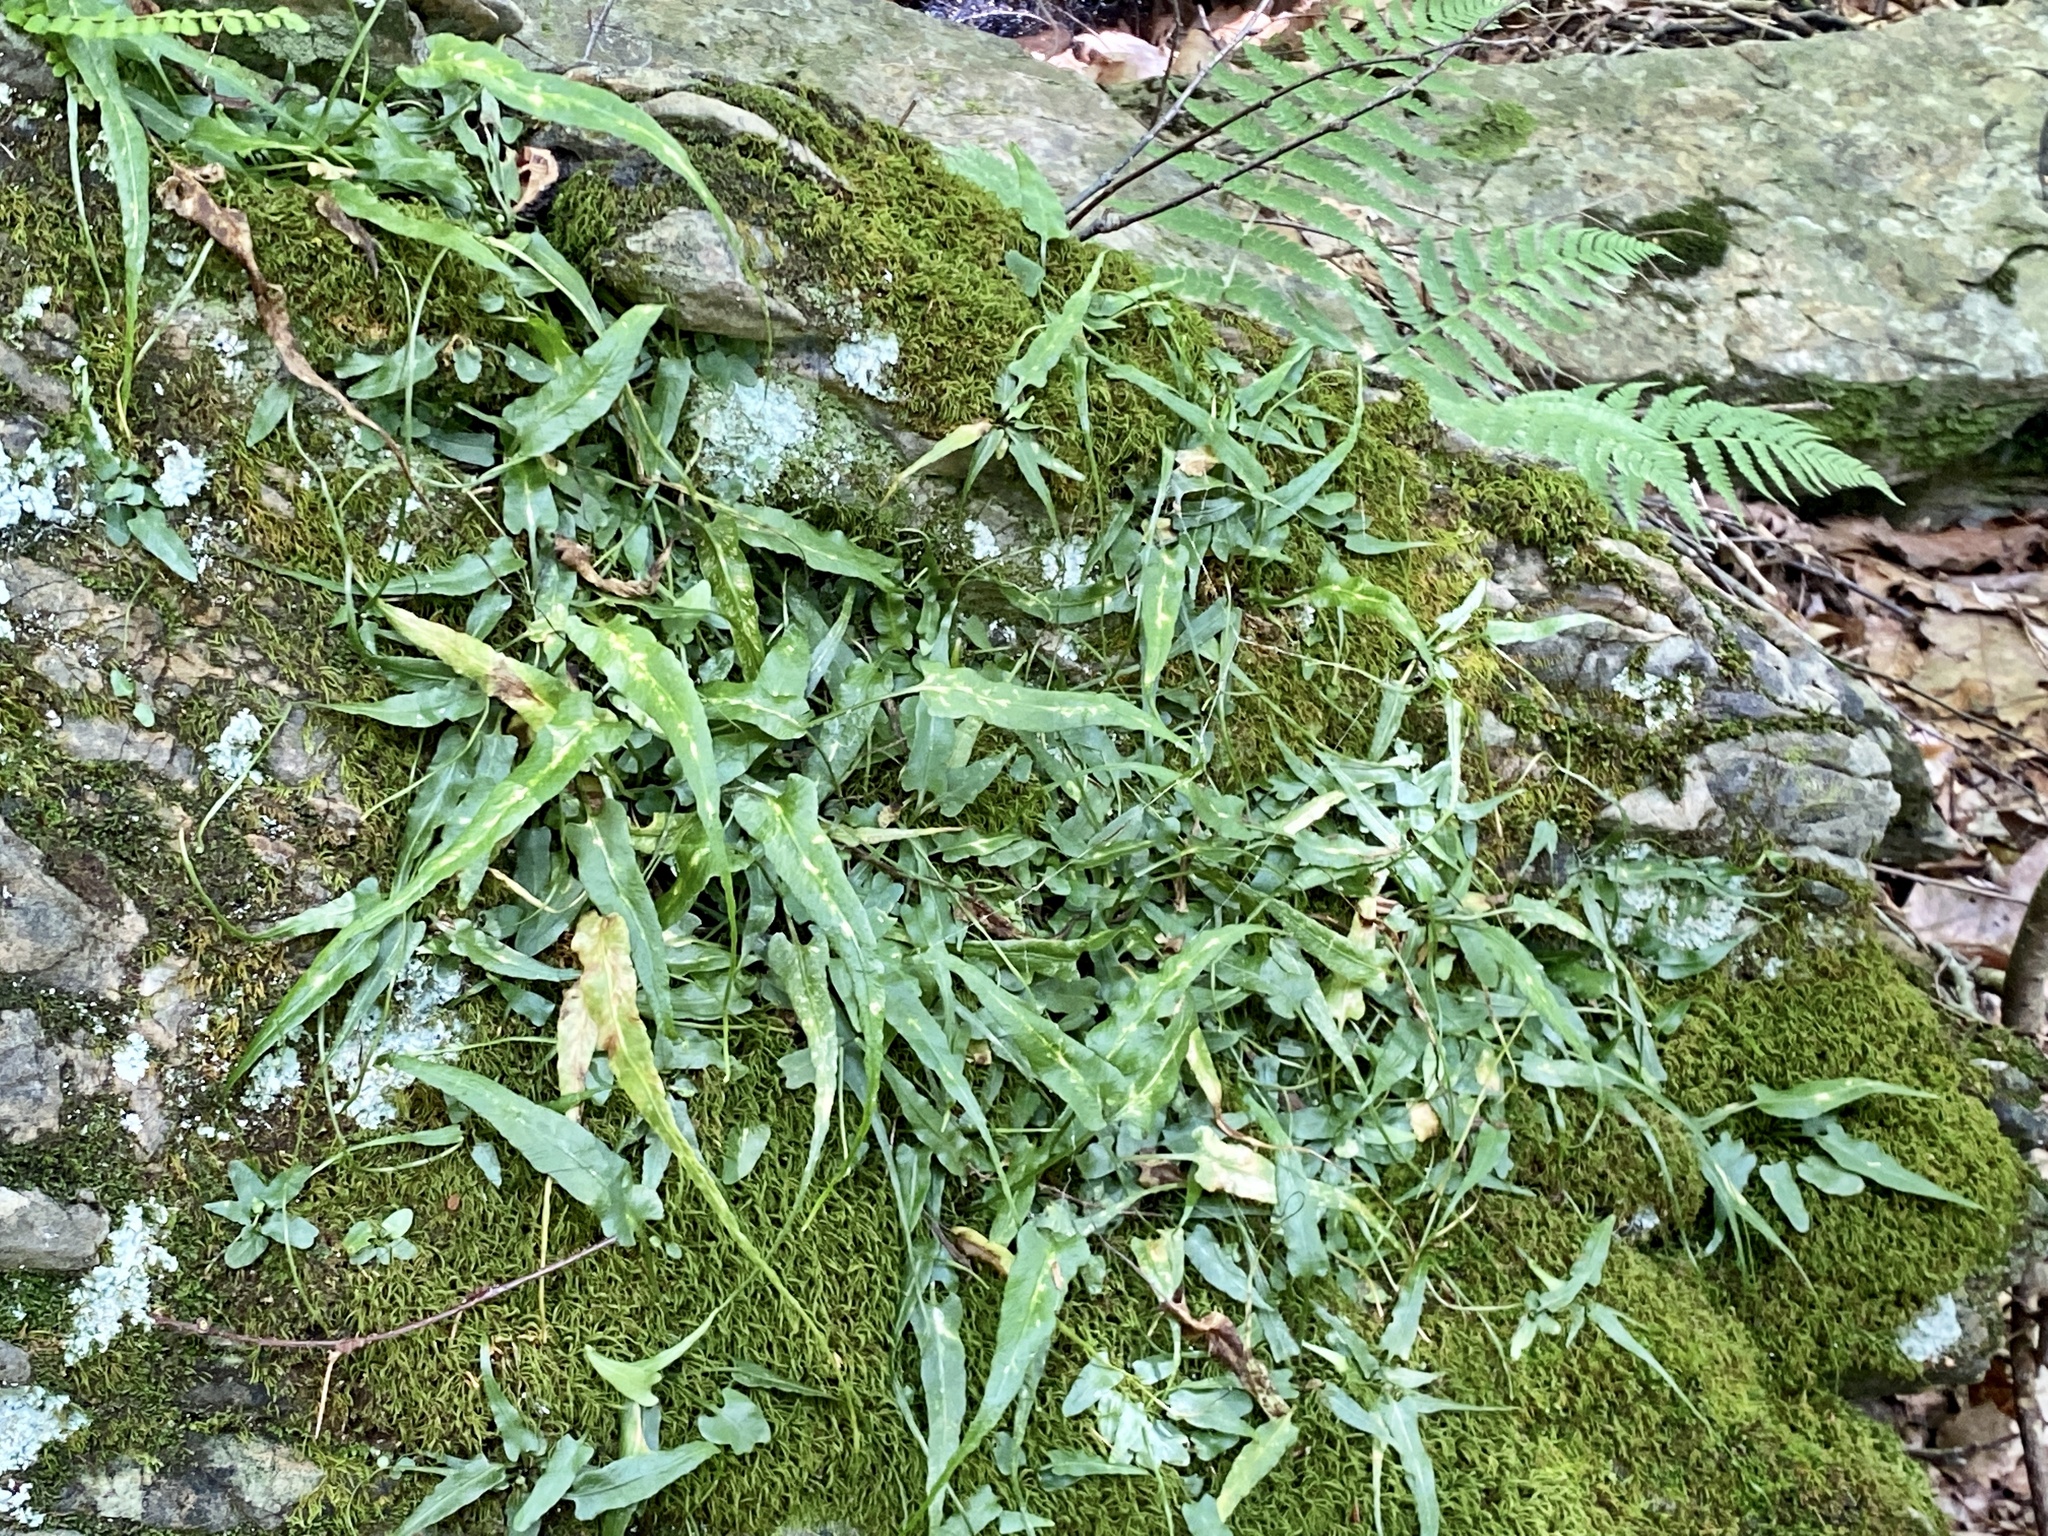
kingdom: Plantae
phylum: Tracheophyta
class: Polypodiopsida
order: Polypodiales
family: Aspleniaceae
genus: Asplenium
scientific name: Asplenium rhizophyllum
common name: Walking fern
